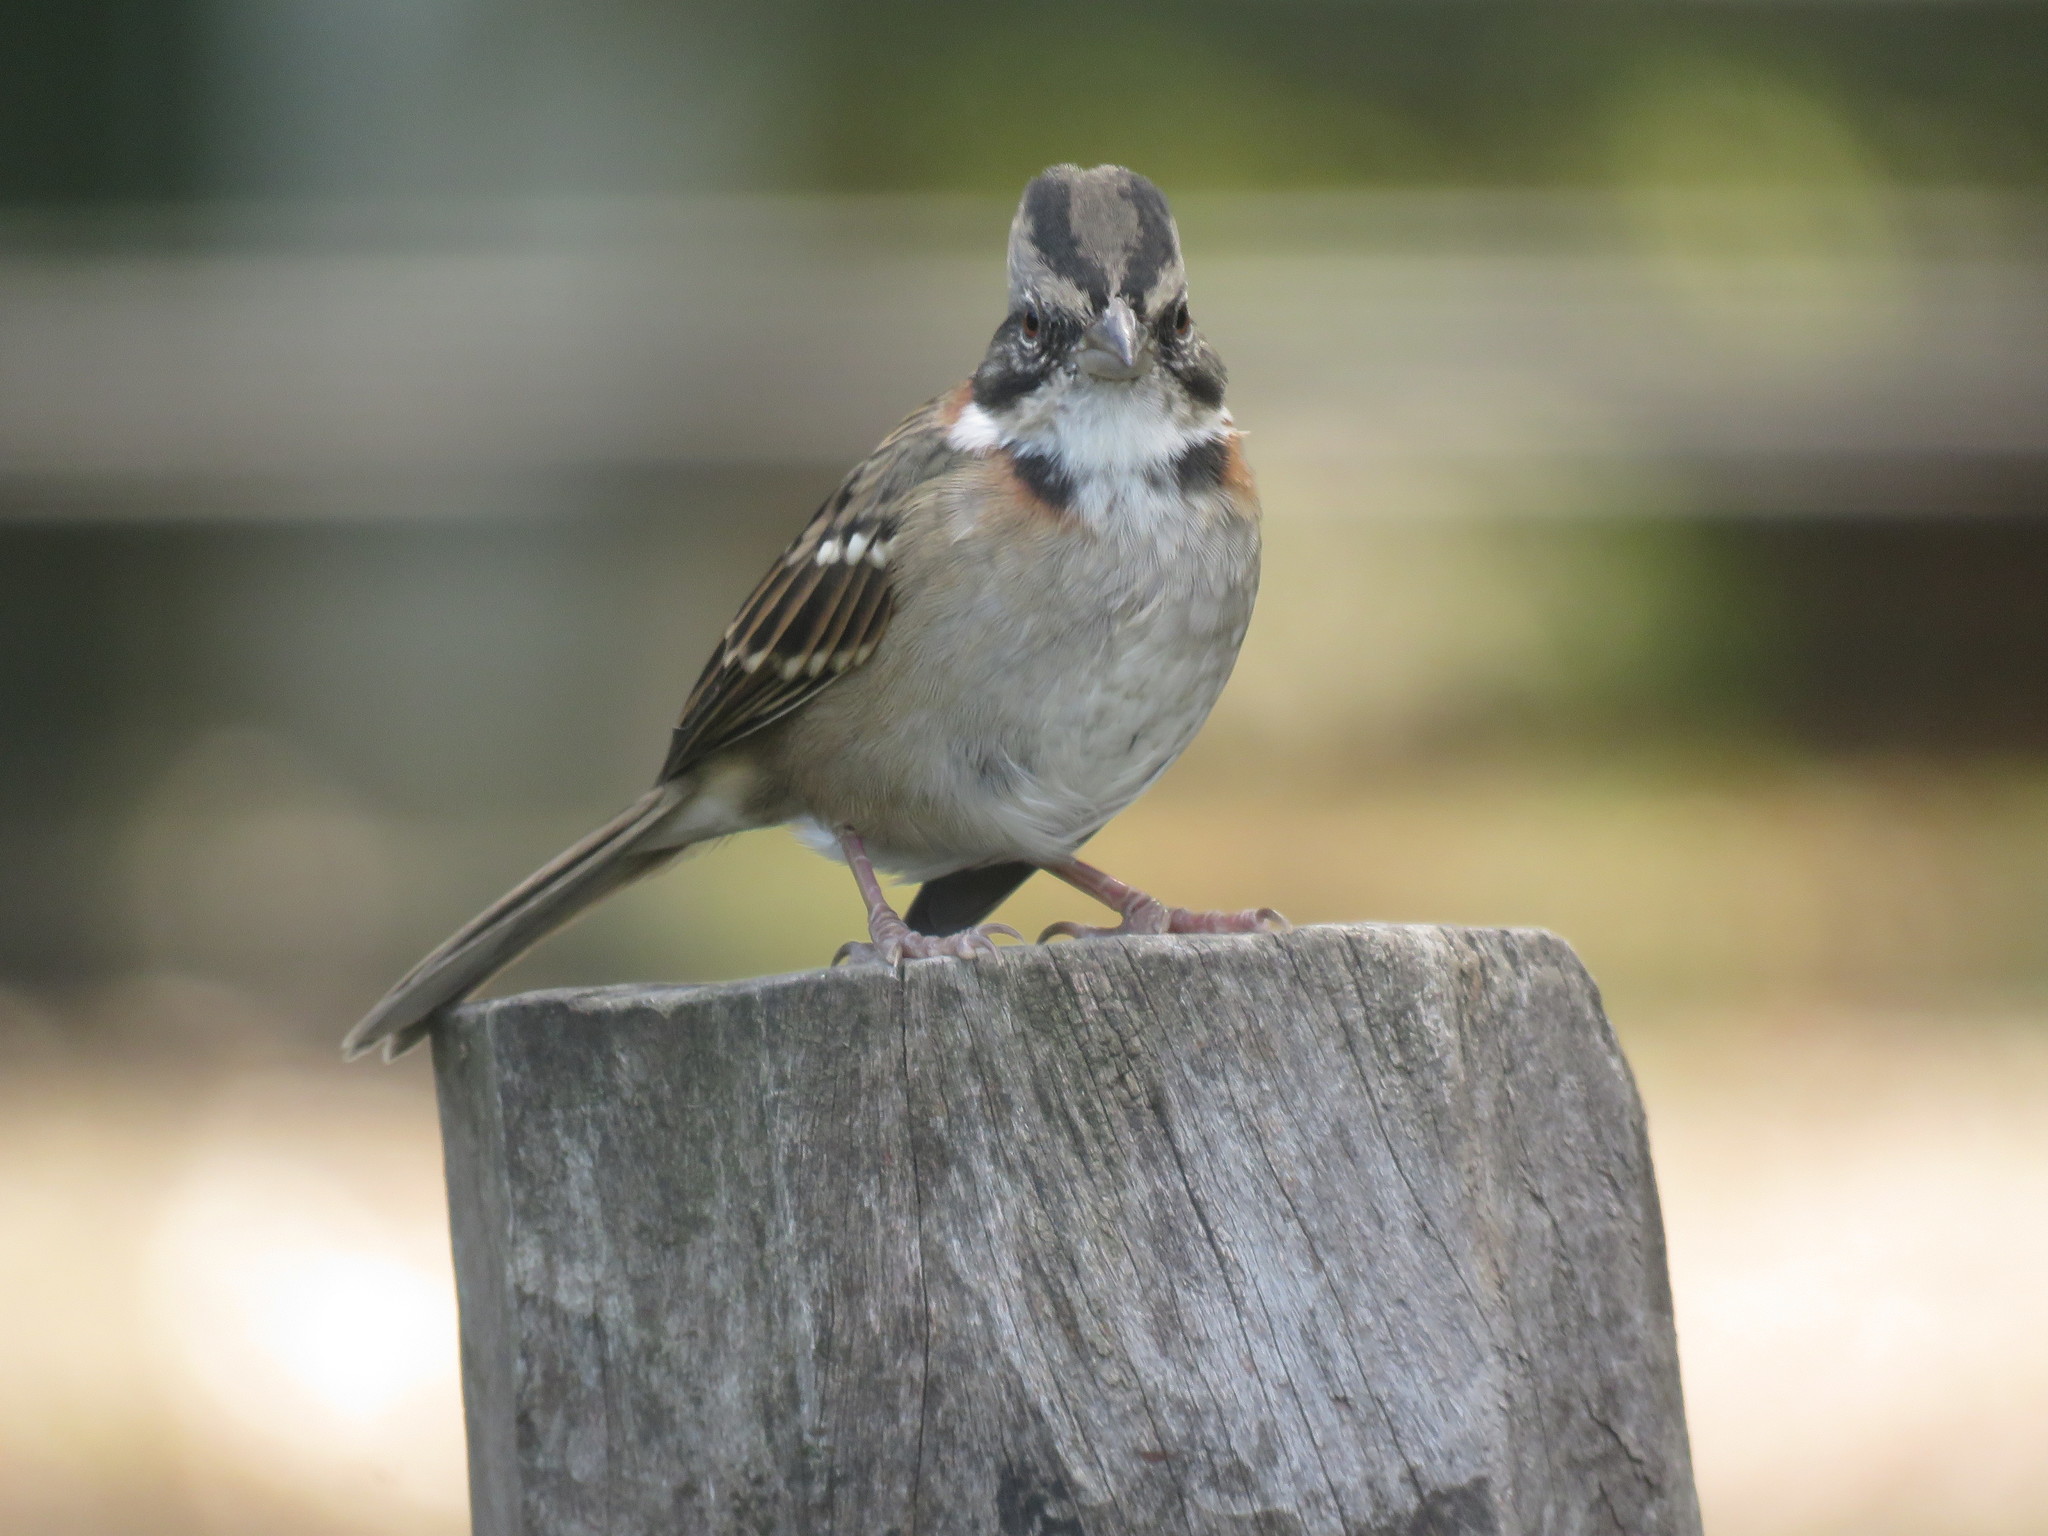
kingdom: Animalia
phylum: Chordata
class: Aves
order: Passeriformes
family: Passerellidae
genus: Zonotrichia
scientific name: Zonotrichia capensis
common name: Rufous-collared sparrow
